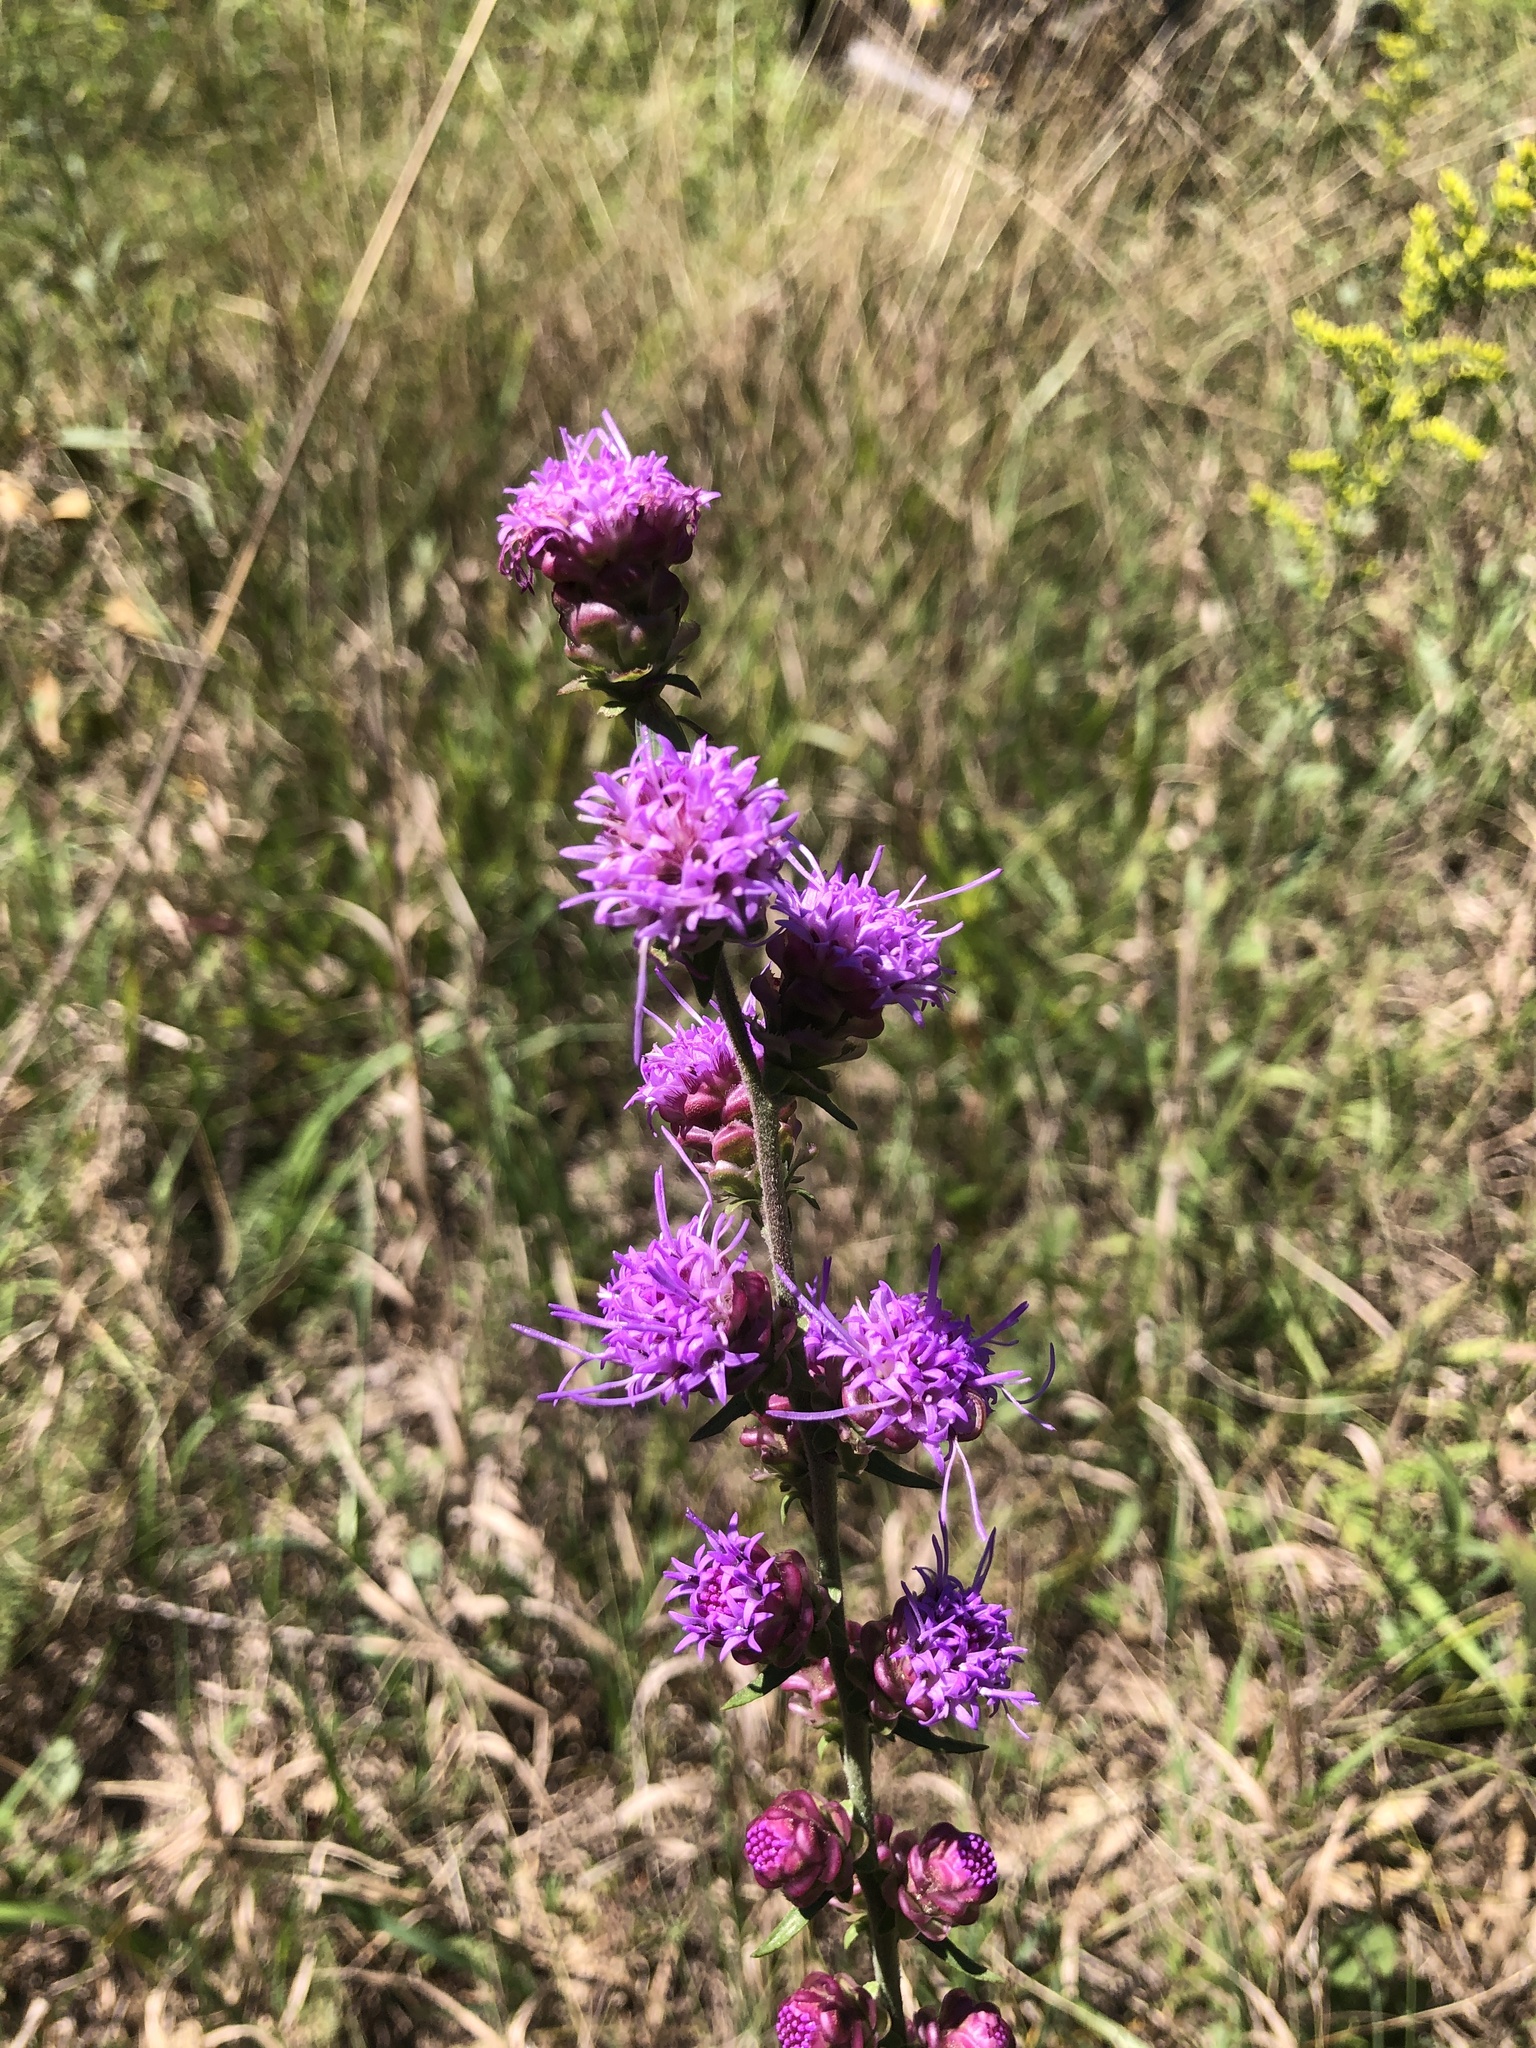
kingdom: Plantae
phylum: Tracheophyta
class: Magnoliopsida
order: Asterales
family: Asteraceae
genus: Liatris
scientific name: Liatris aspera
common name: Lacerate blazing-star
